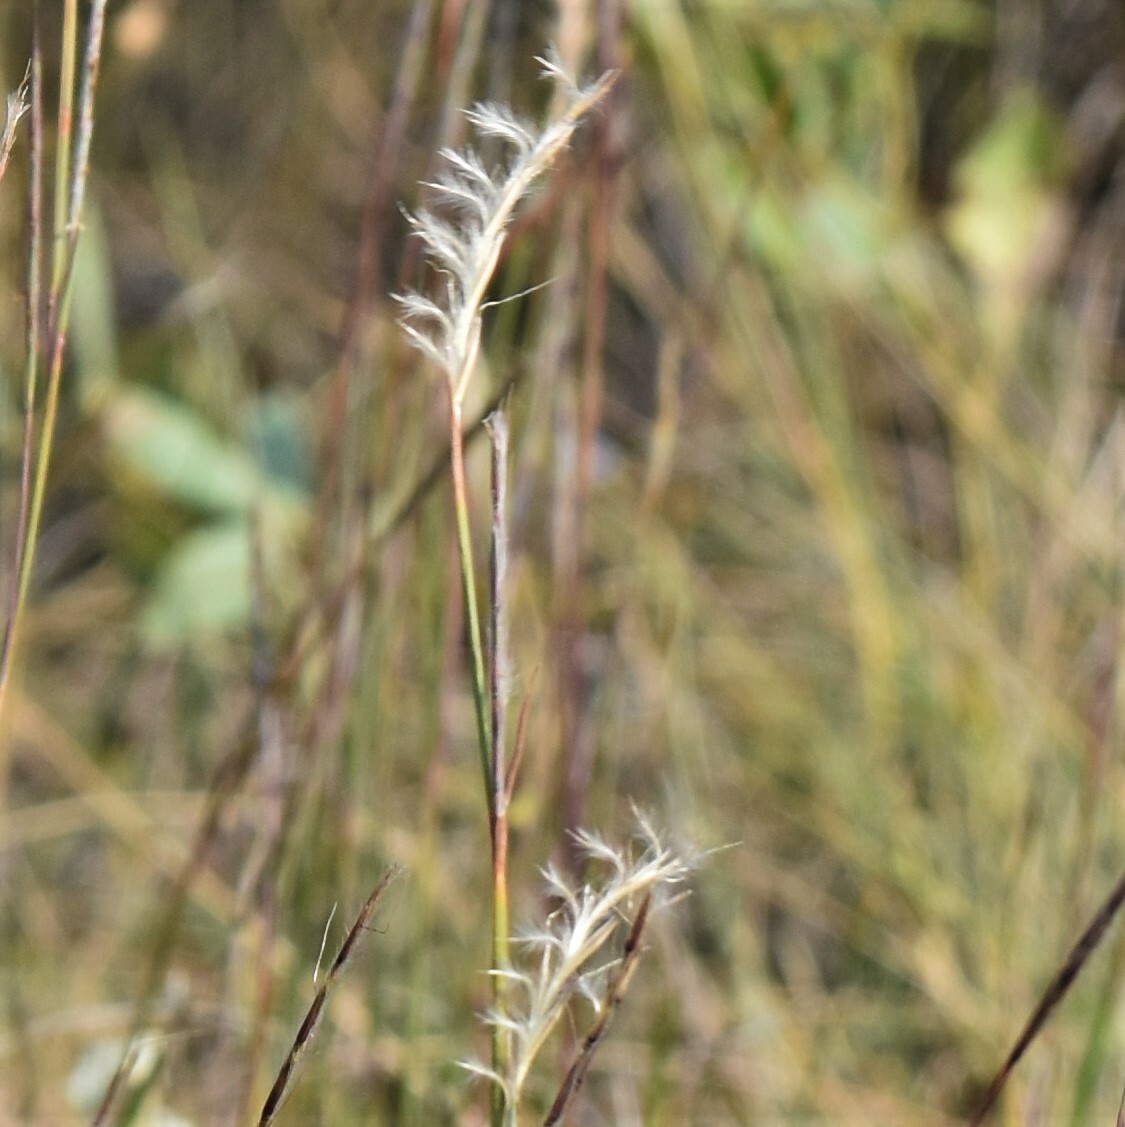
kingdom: Plantae
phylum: Tracheophyta
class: Liliopsida
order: Poales
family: Poaceae
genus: Schizachyrium
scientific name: Schizachyrium scoparium
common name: Little bluestem
